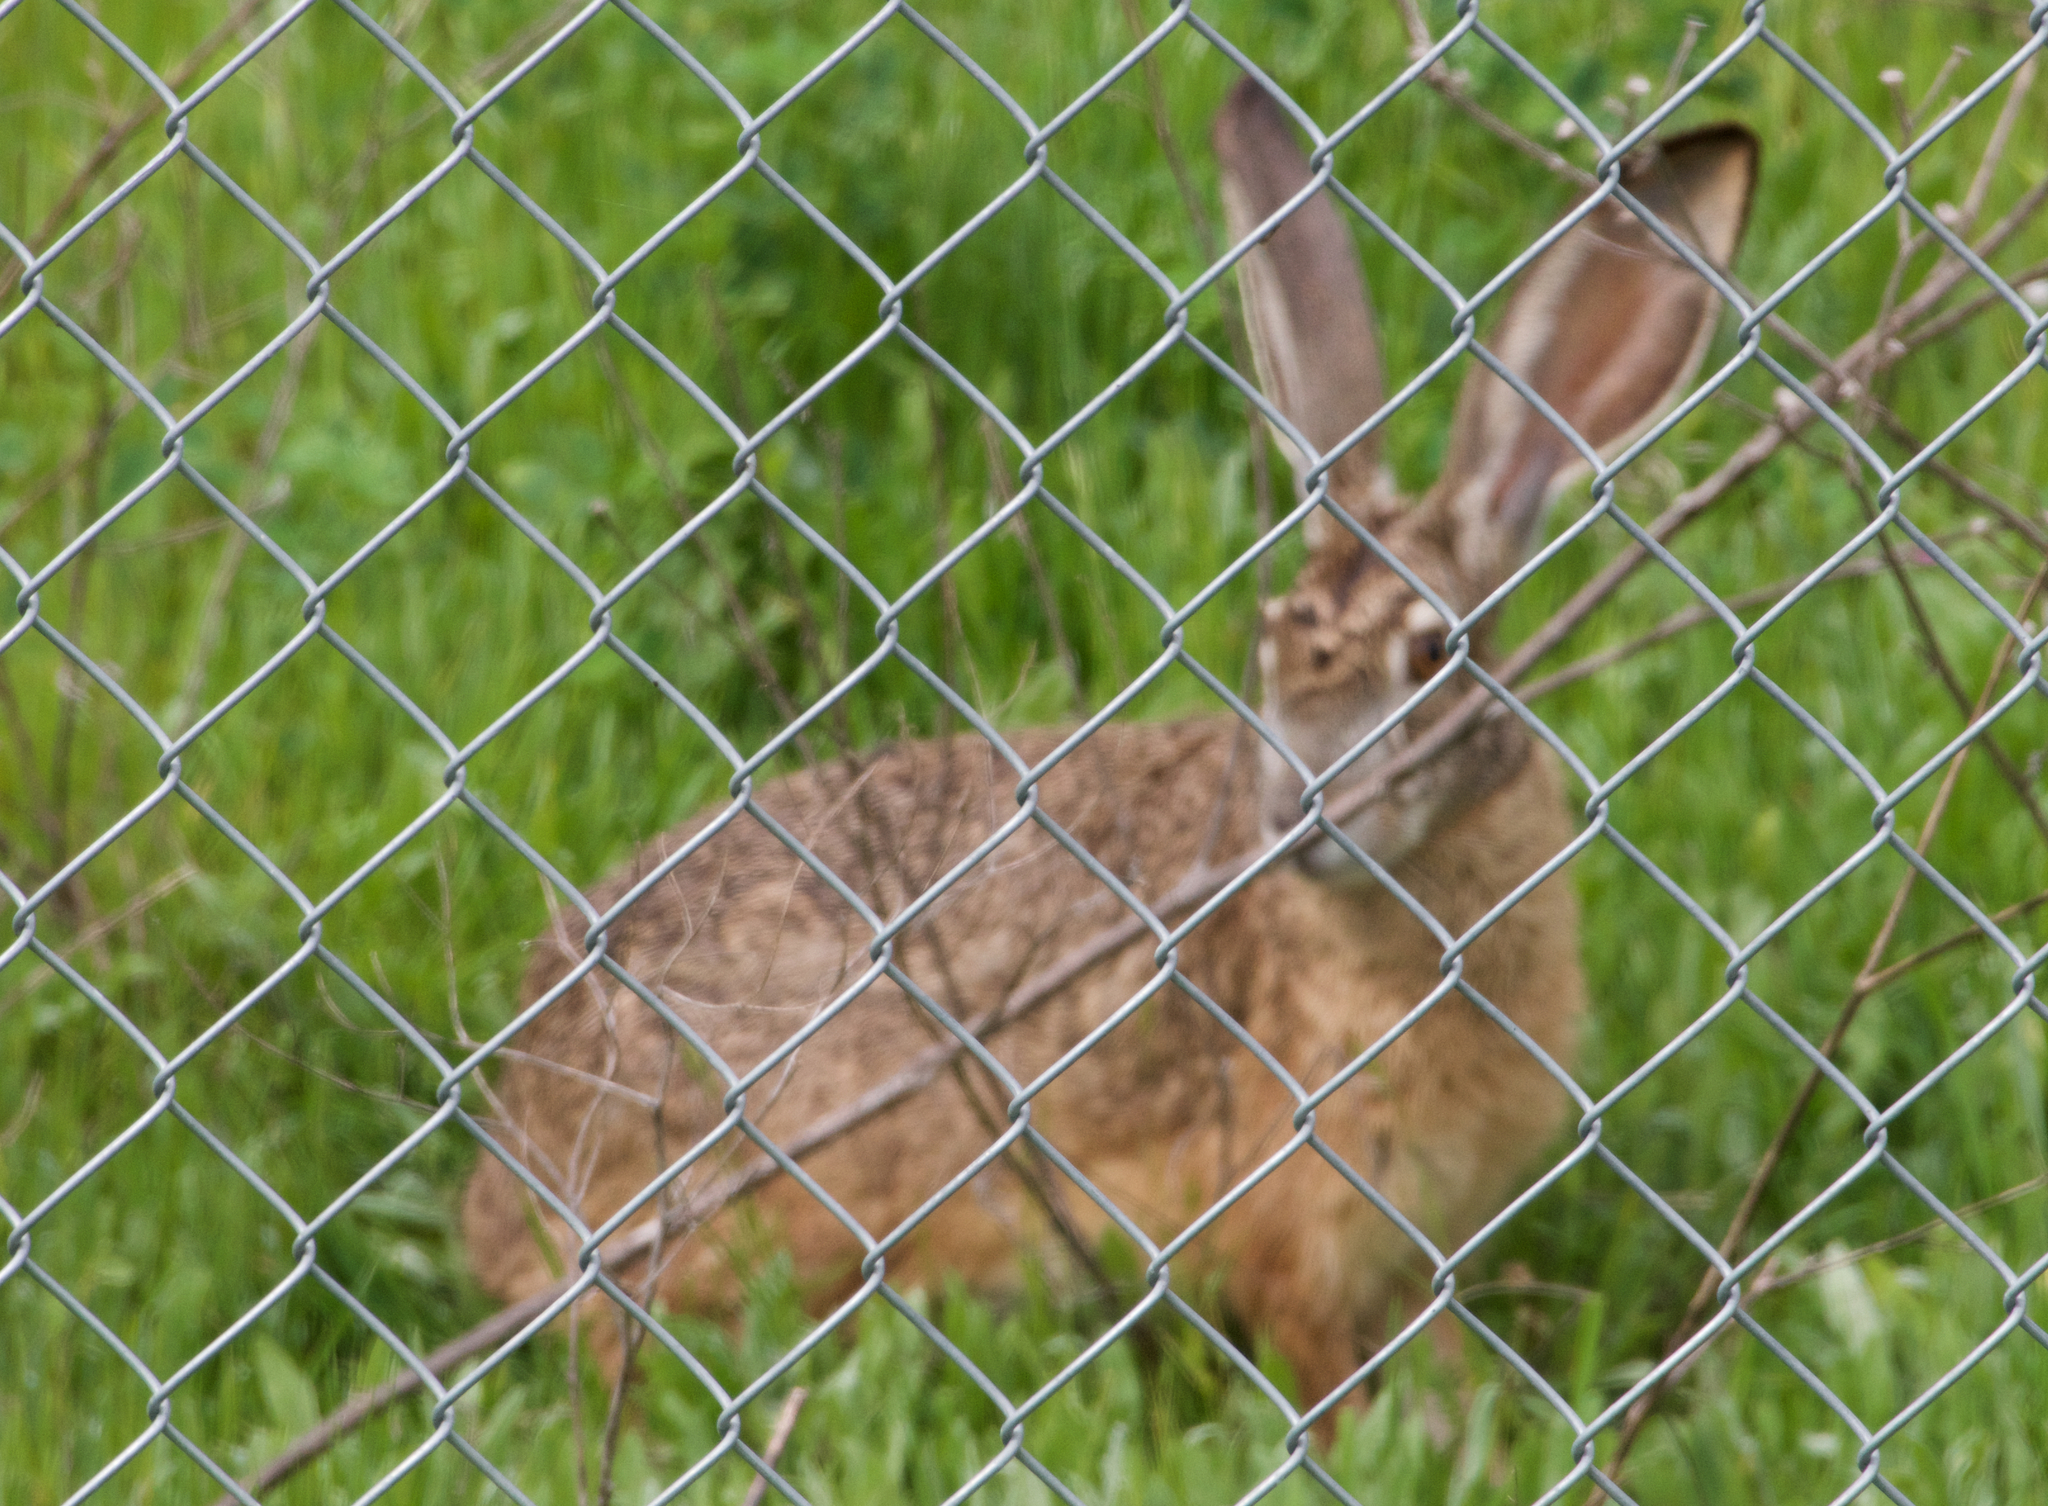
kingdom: Animalia
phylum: Chordata
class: Mammalia
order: Lagomorpha
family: Leporidae
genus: Lepus
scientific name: Lepus californicus
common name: Black-tailed jackrabbit
